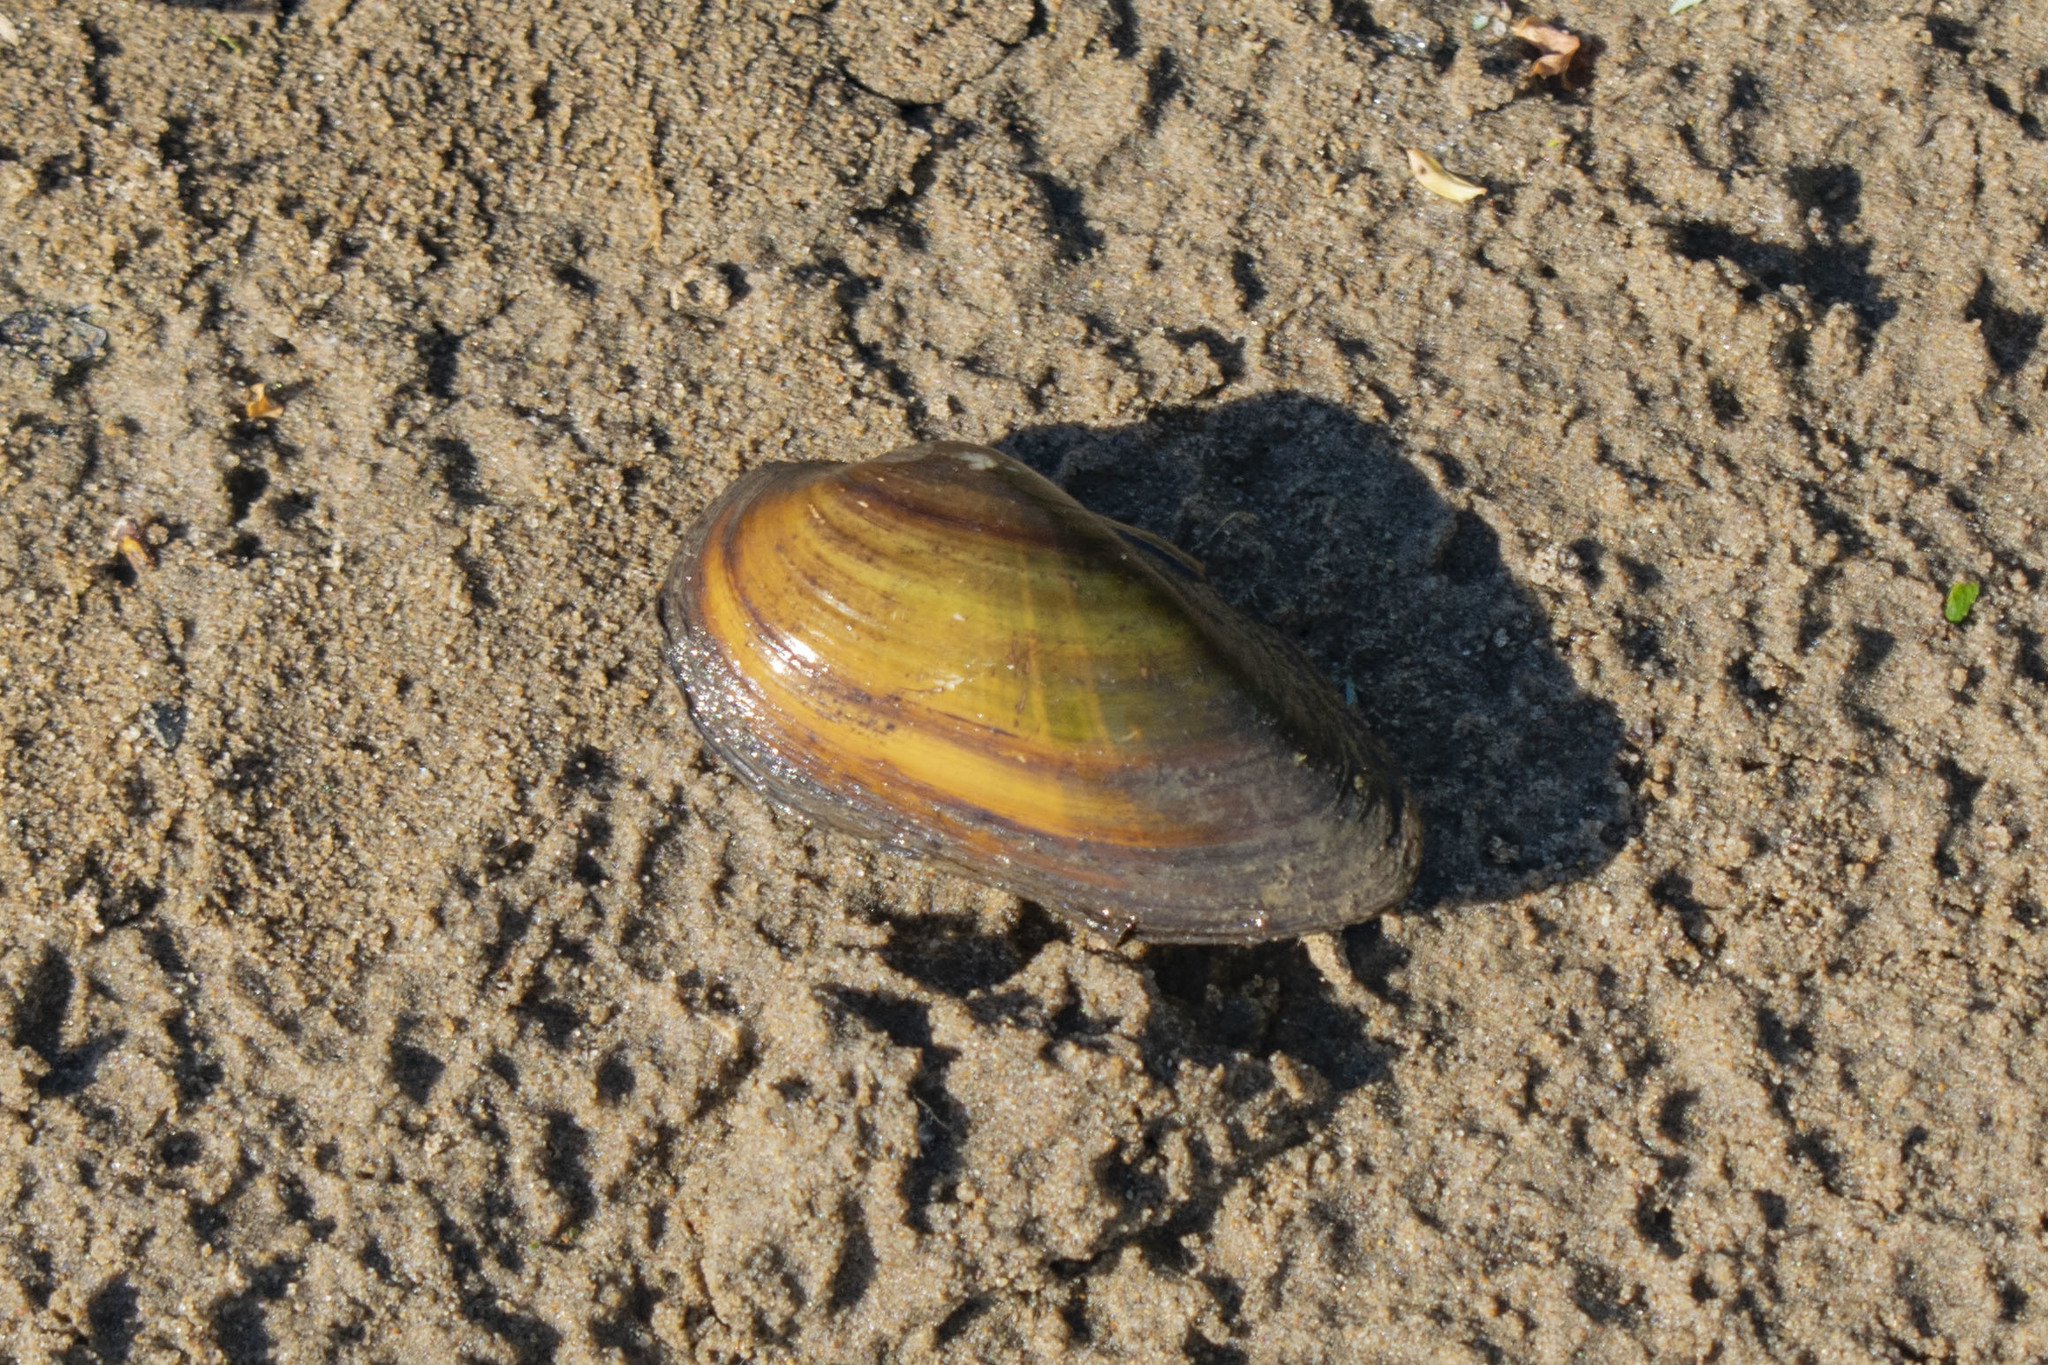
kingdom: Animalia
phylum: Mollusca
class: Bivalvia
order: Unionida
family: Unionidae
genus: Unio
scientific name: Unio tumidus
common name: Swollen river mussel
